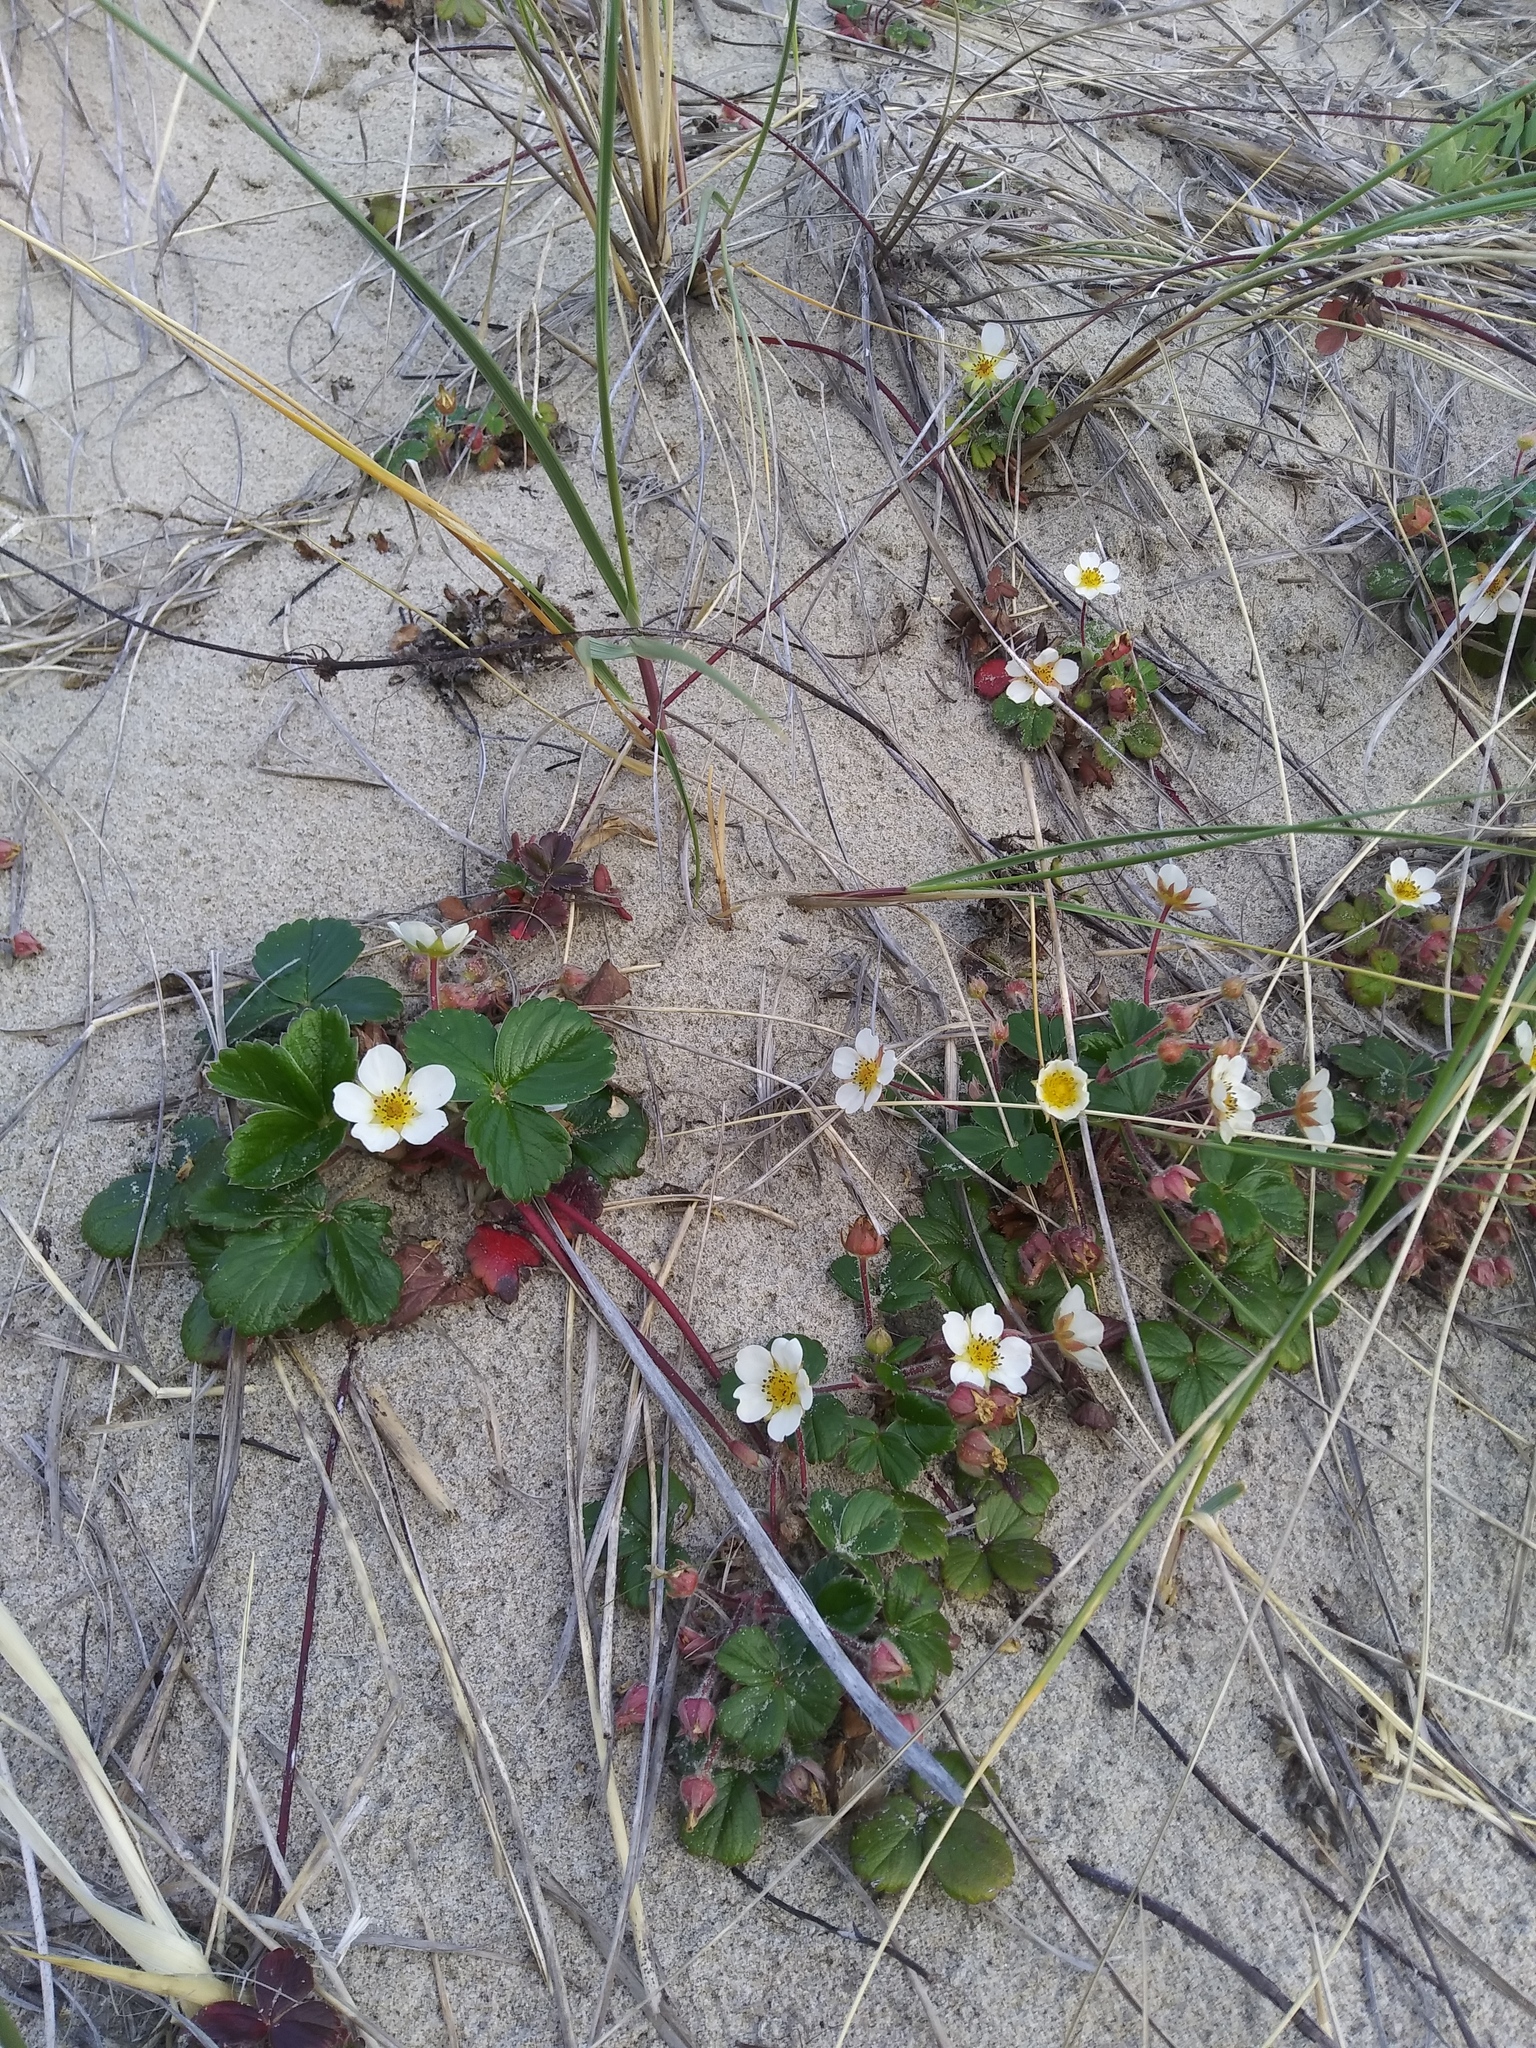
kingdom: Plantae
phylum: Tracheophyta
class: Magnoliopsida
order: Rosales
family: Rosaceae
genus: Fragaria
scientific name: Fragaria chiloensis
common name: Beach strawberry
